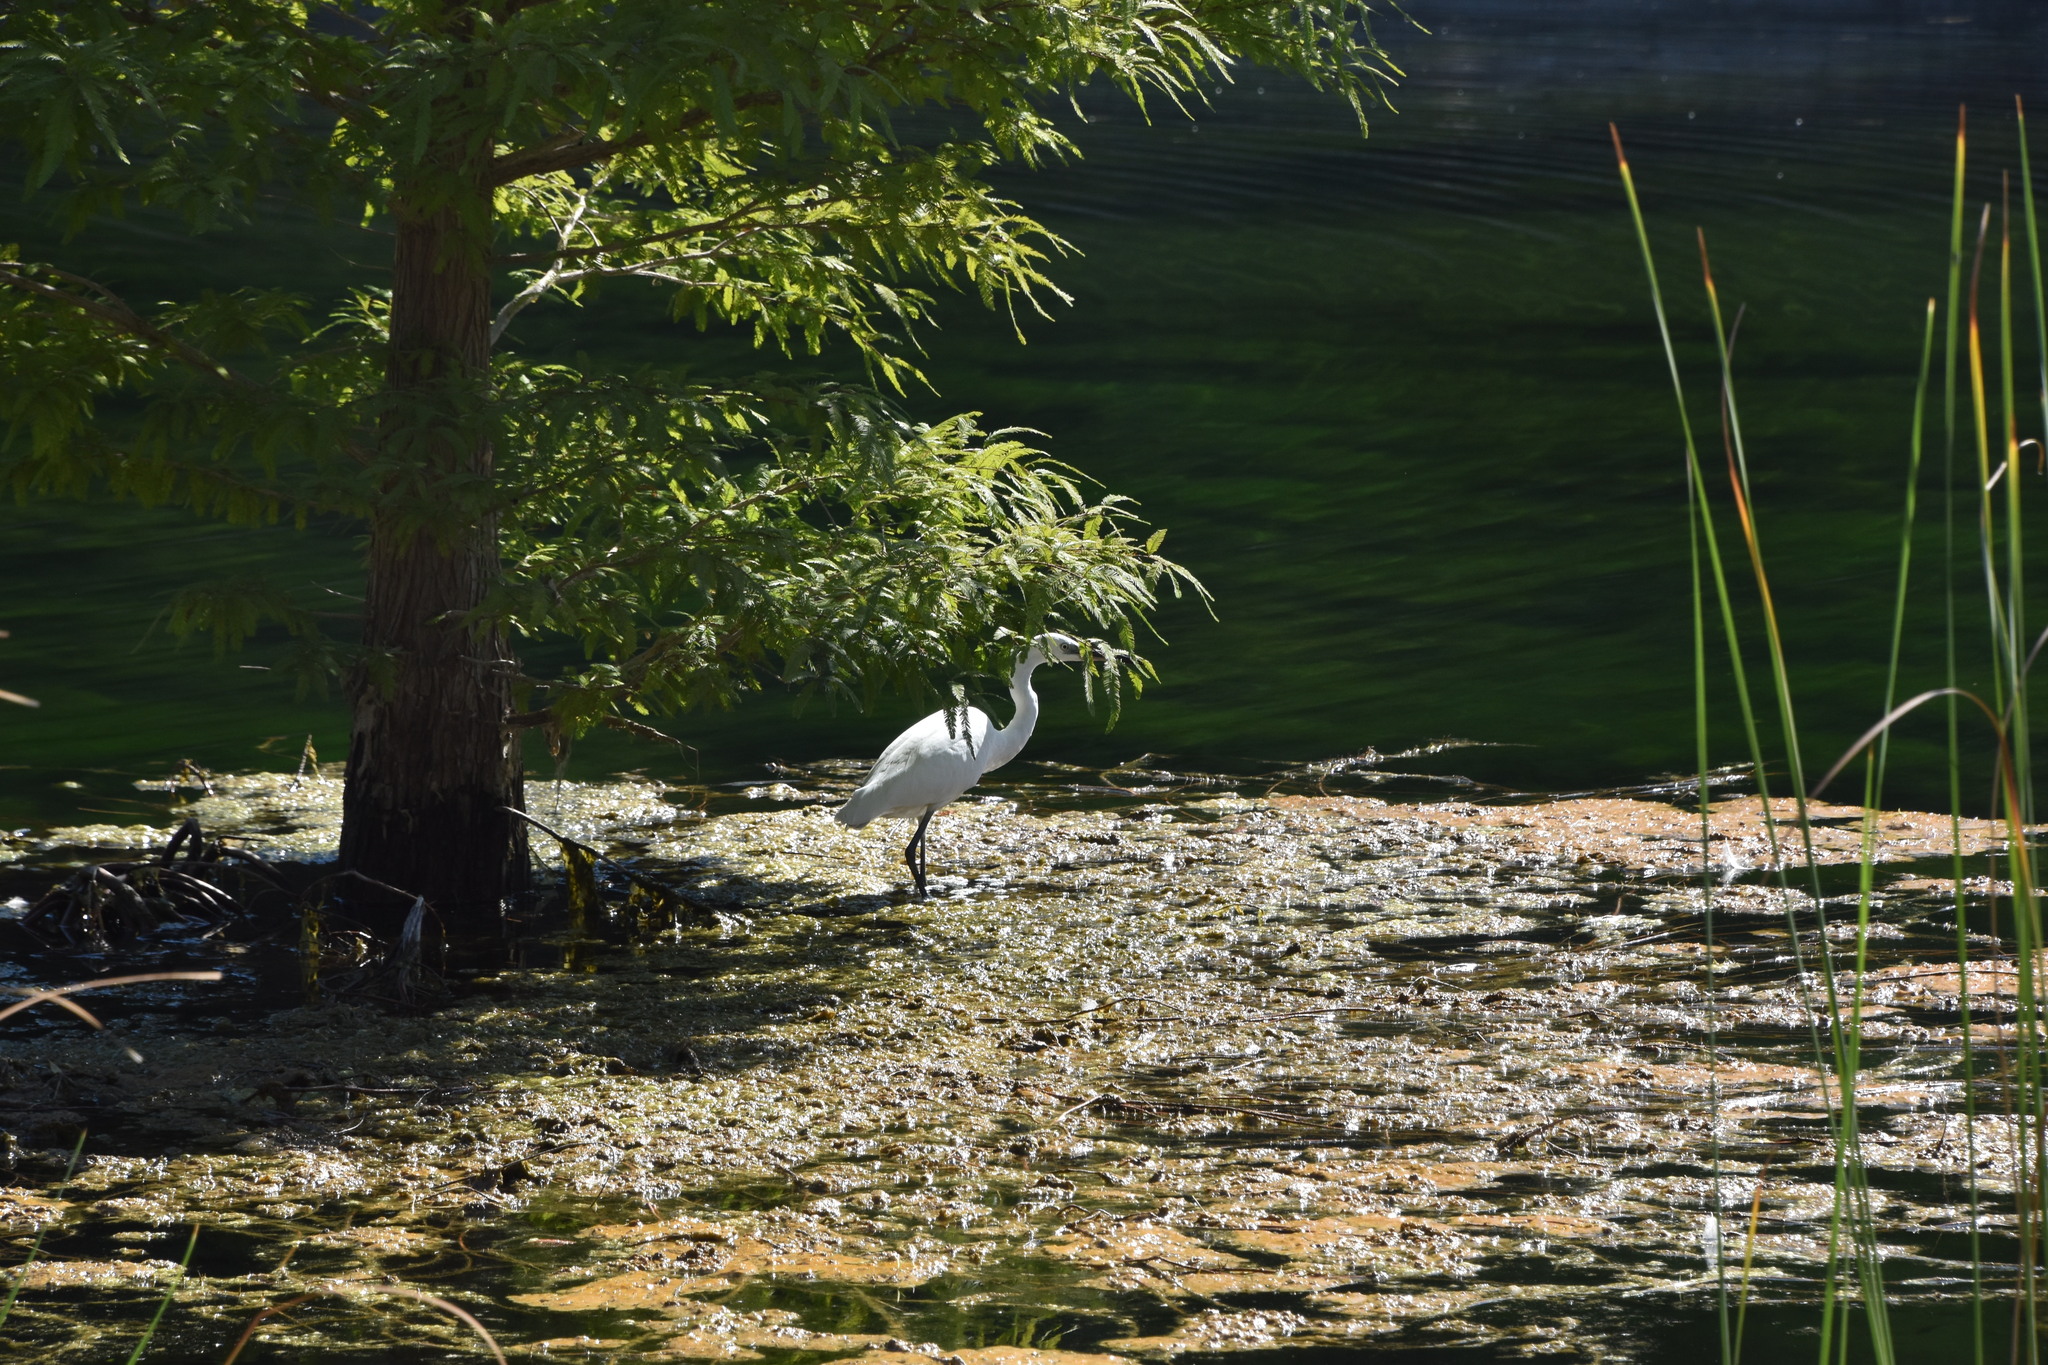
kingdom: Animalia
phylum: Chordata
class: Aves
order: Pelecaniformes
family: Ardeidae
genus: Egretta
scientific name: Egretta garzetta
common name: Little egret
